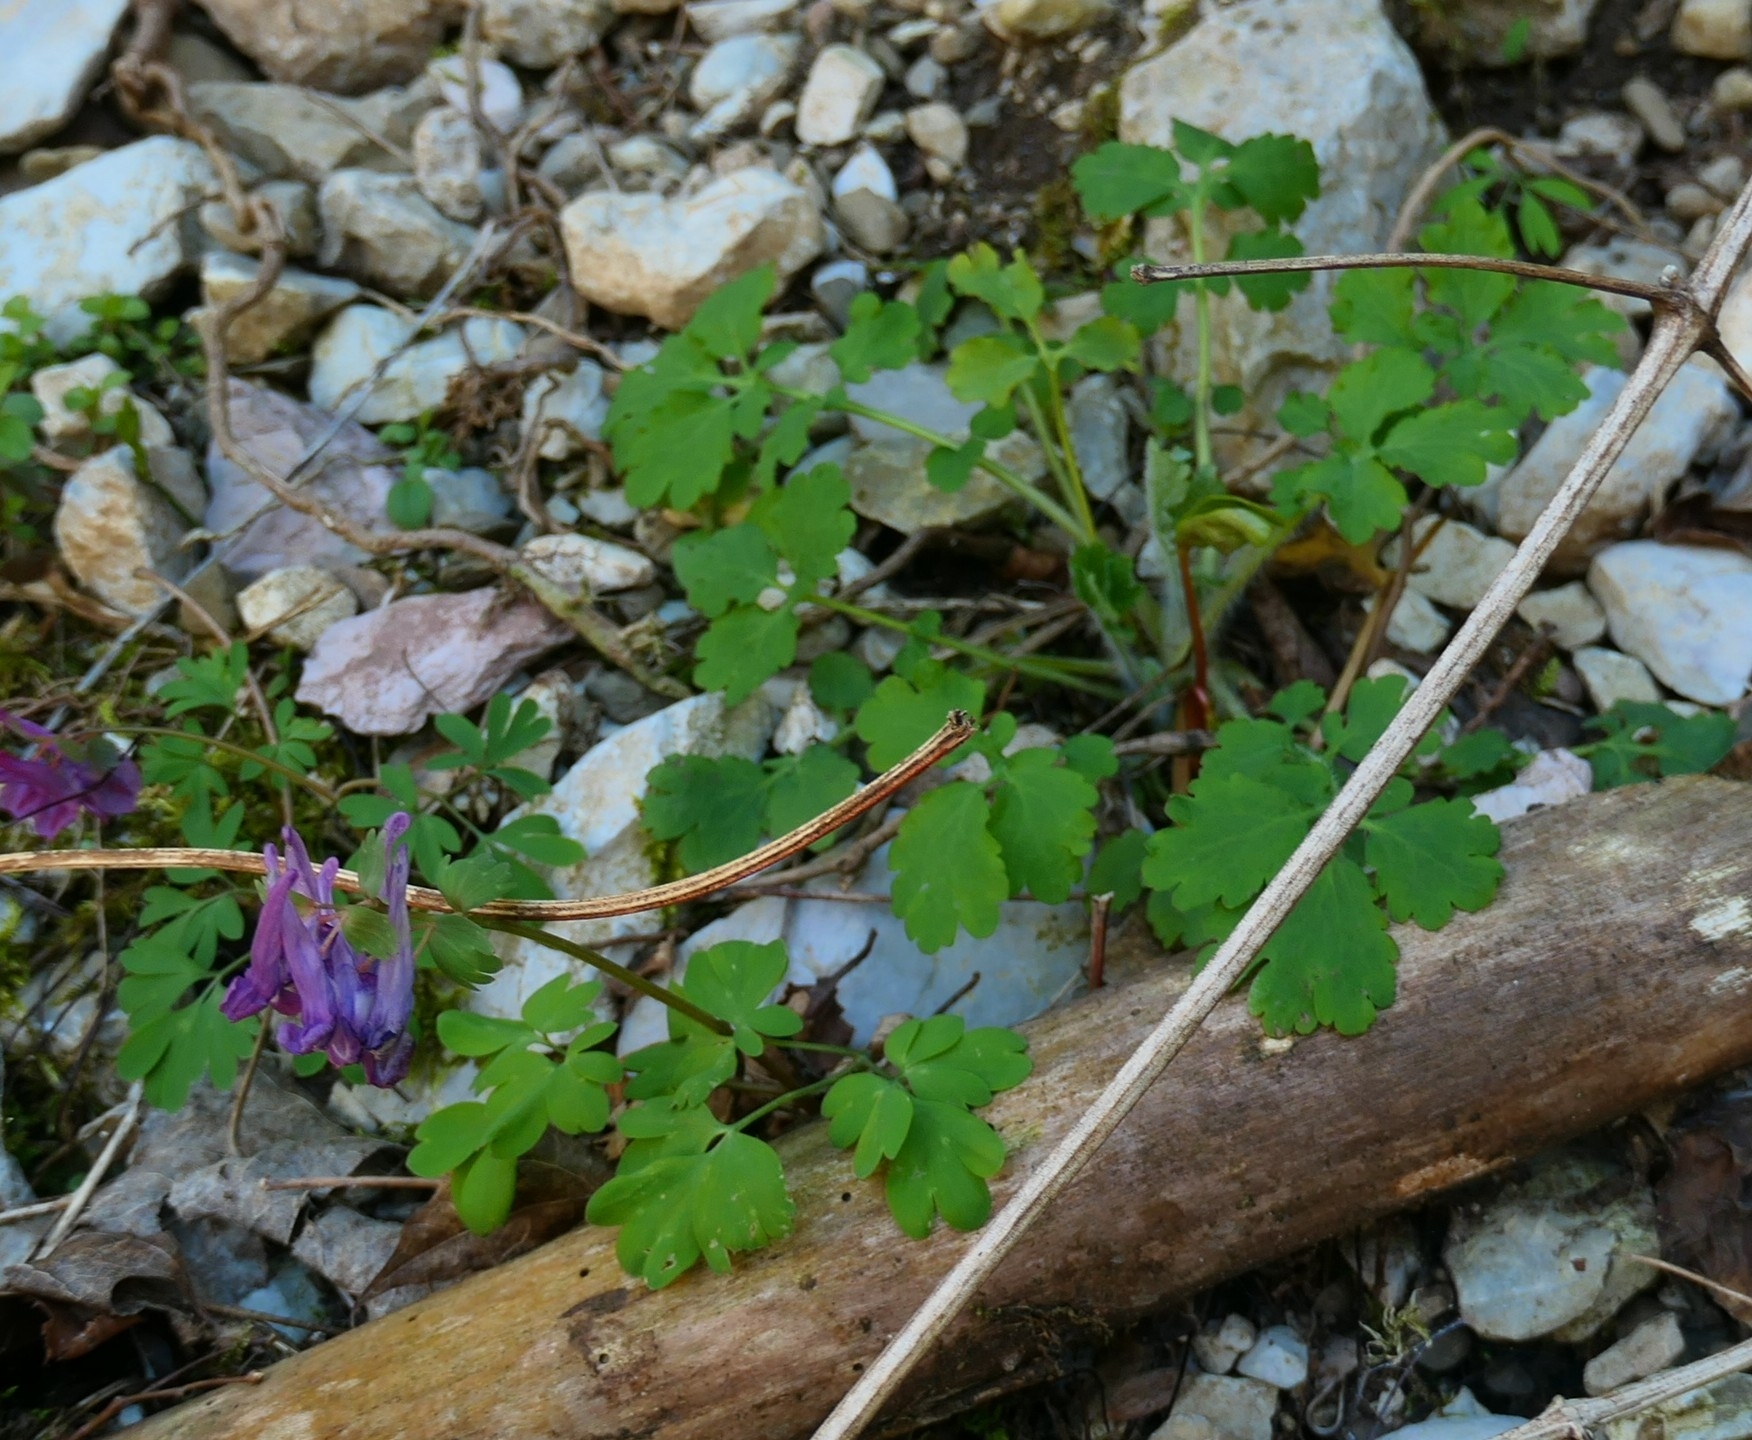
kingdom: Plantae
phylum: Tracheophyta
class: Magnoliopsida
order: Ranunculales
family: Papaveraceae
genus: Corydalis
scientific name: Corydalis solida
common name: Bird-in-a-bush
